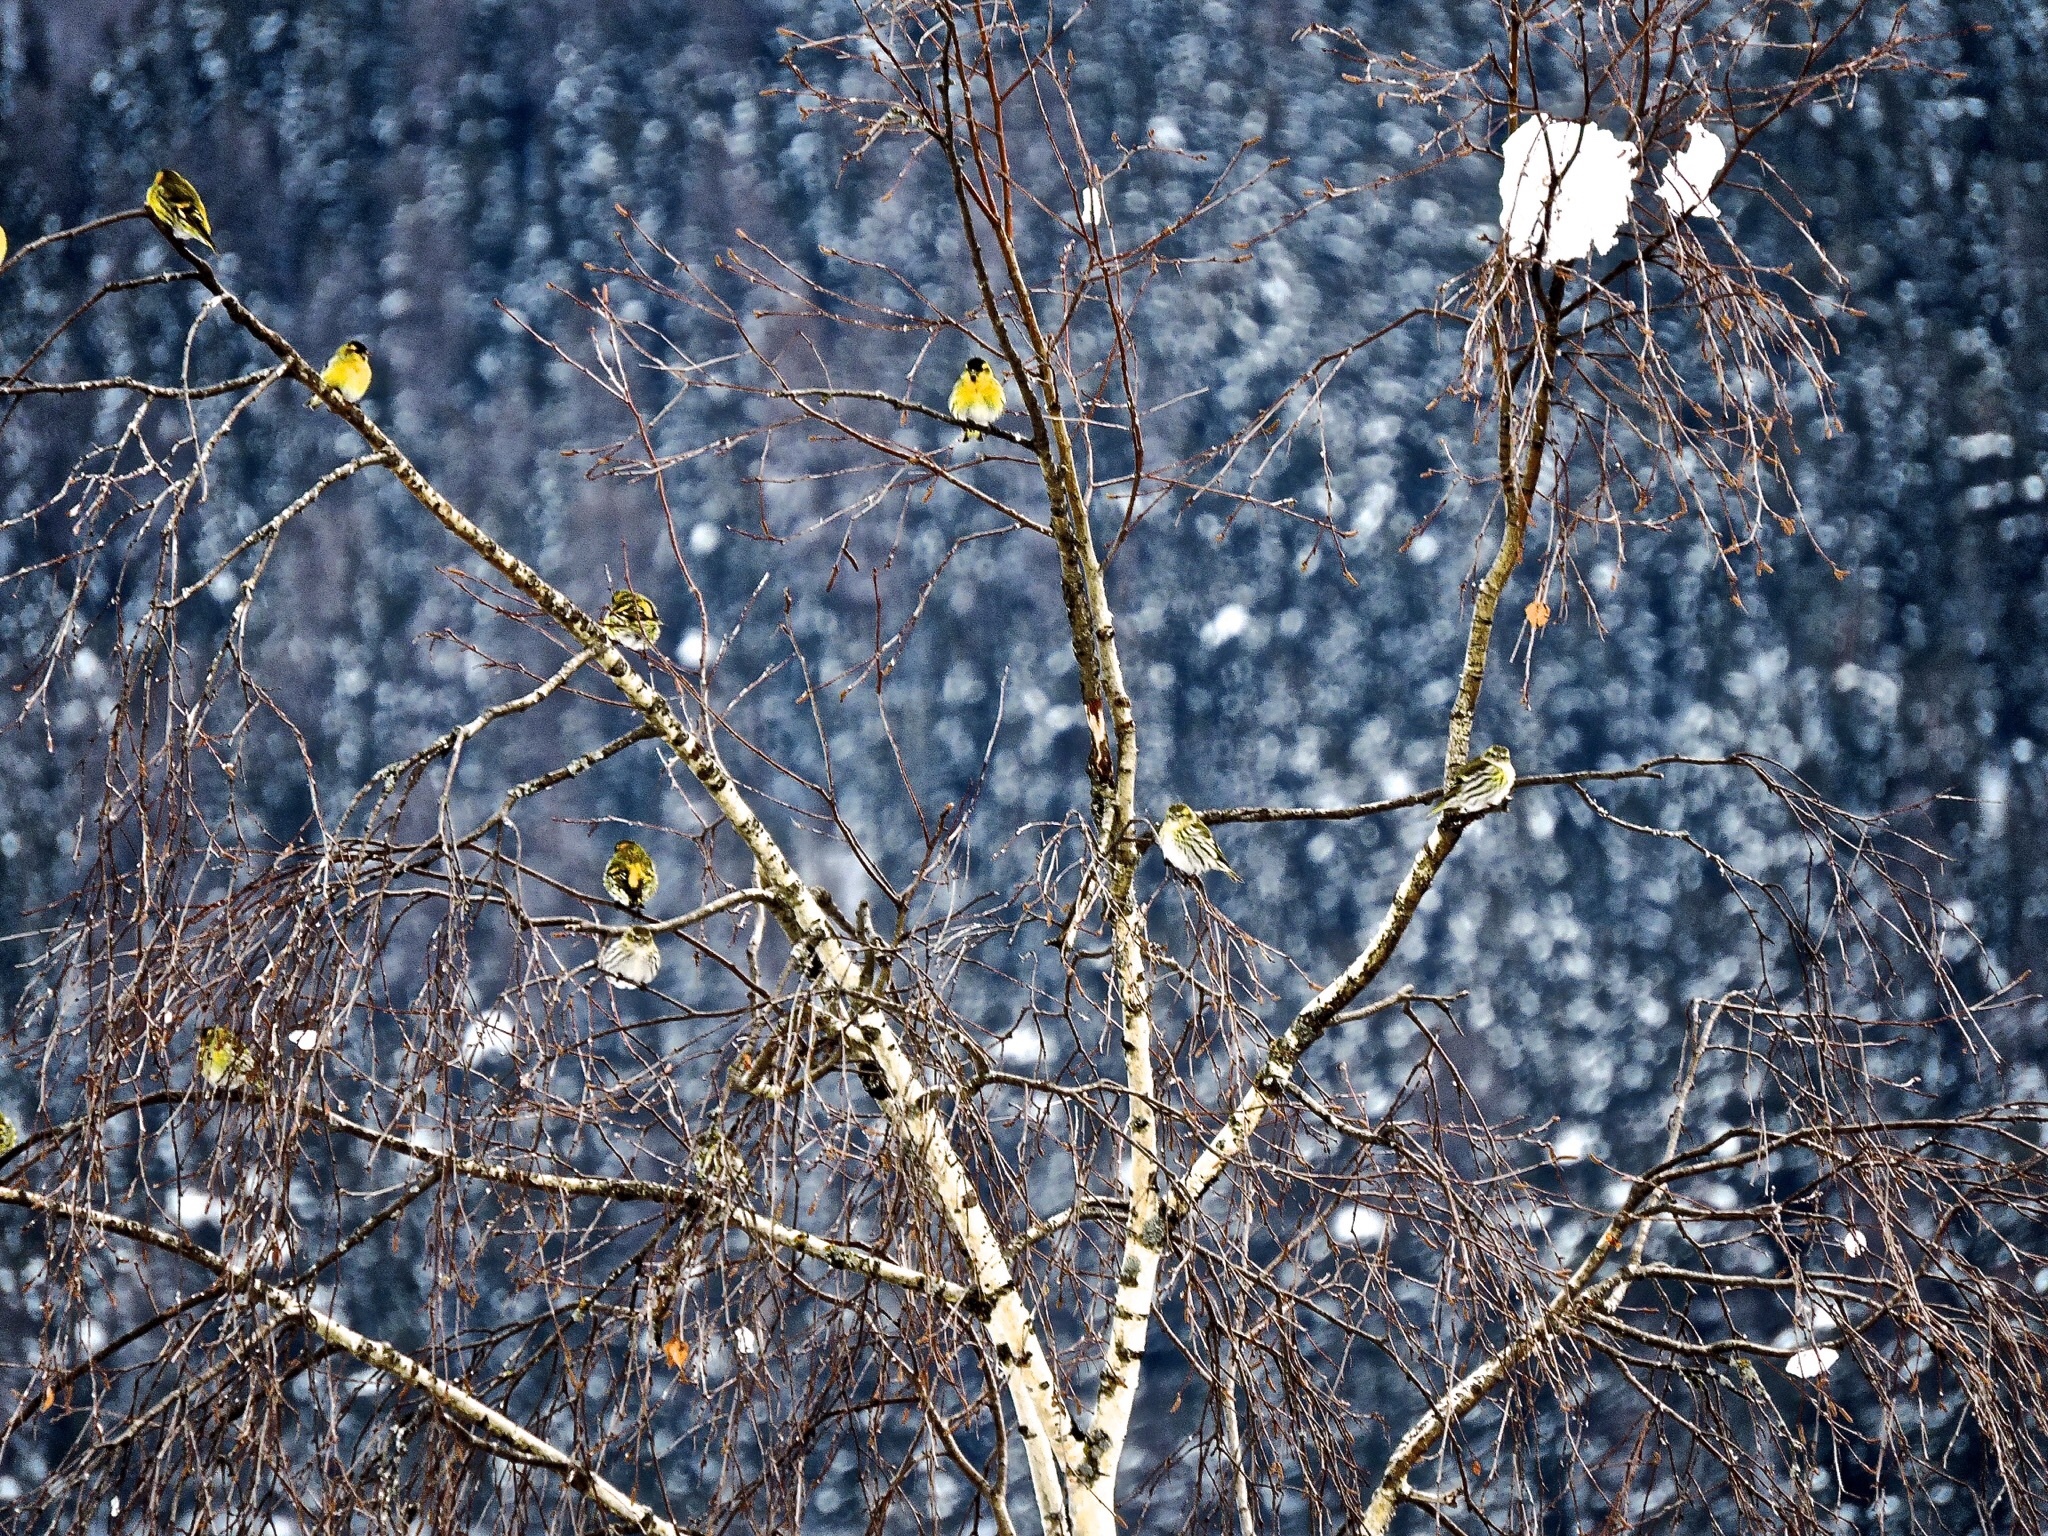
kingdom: Animalia
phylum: Chordata
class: Aves
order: Passeriformes
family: Fringillidae
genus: Spinus
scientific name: Spinus spinus
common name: Eurasian siskin
